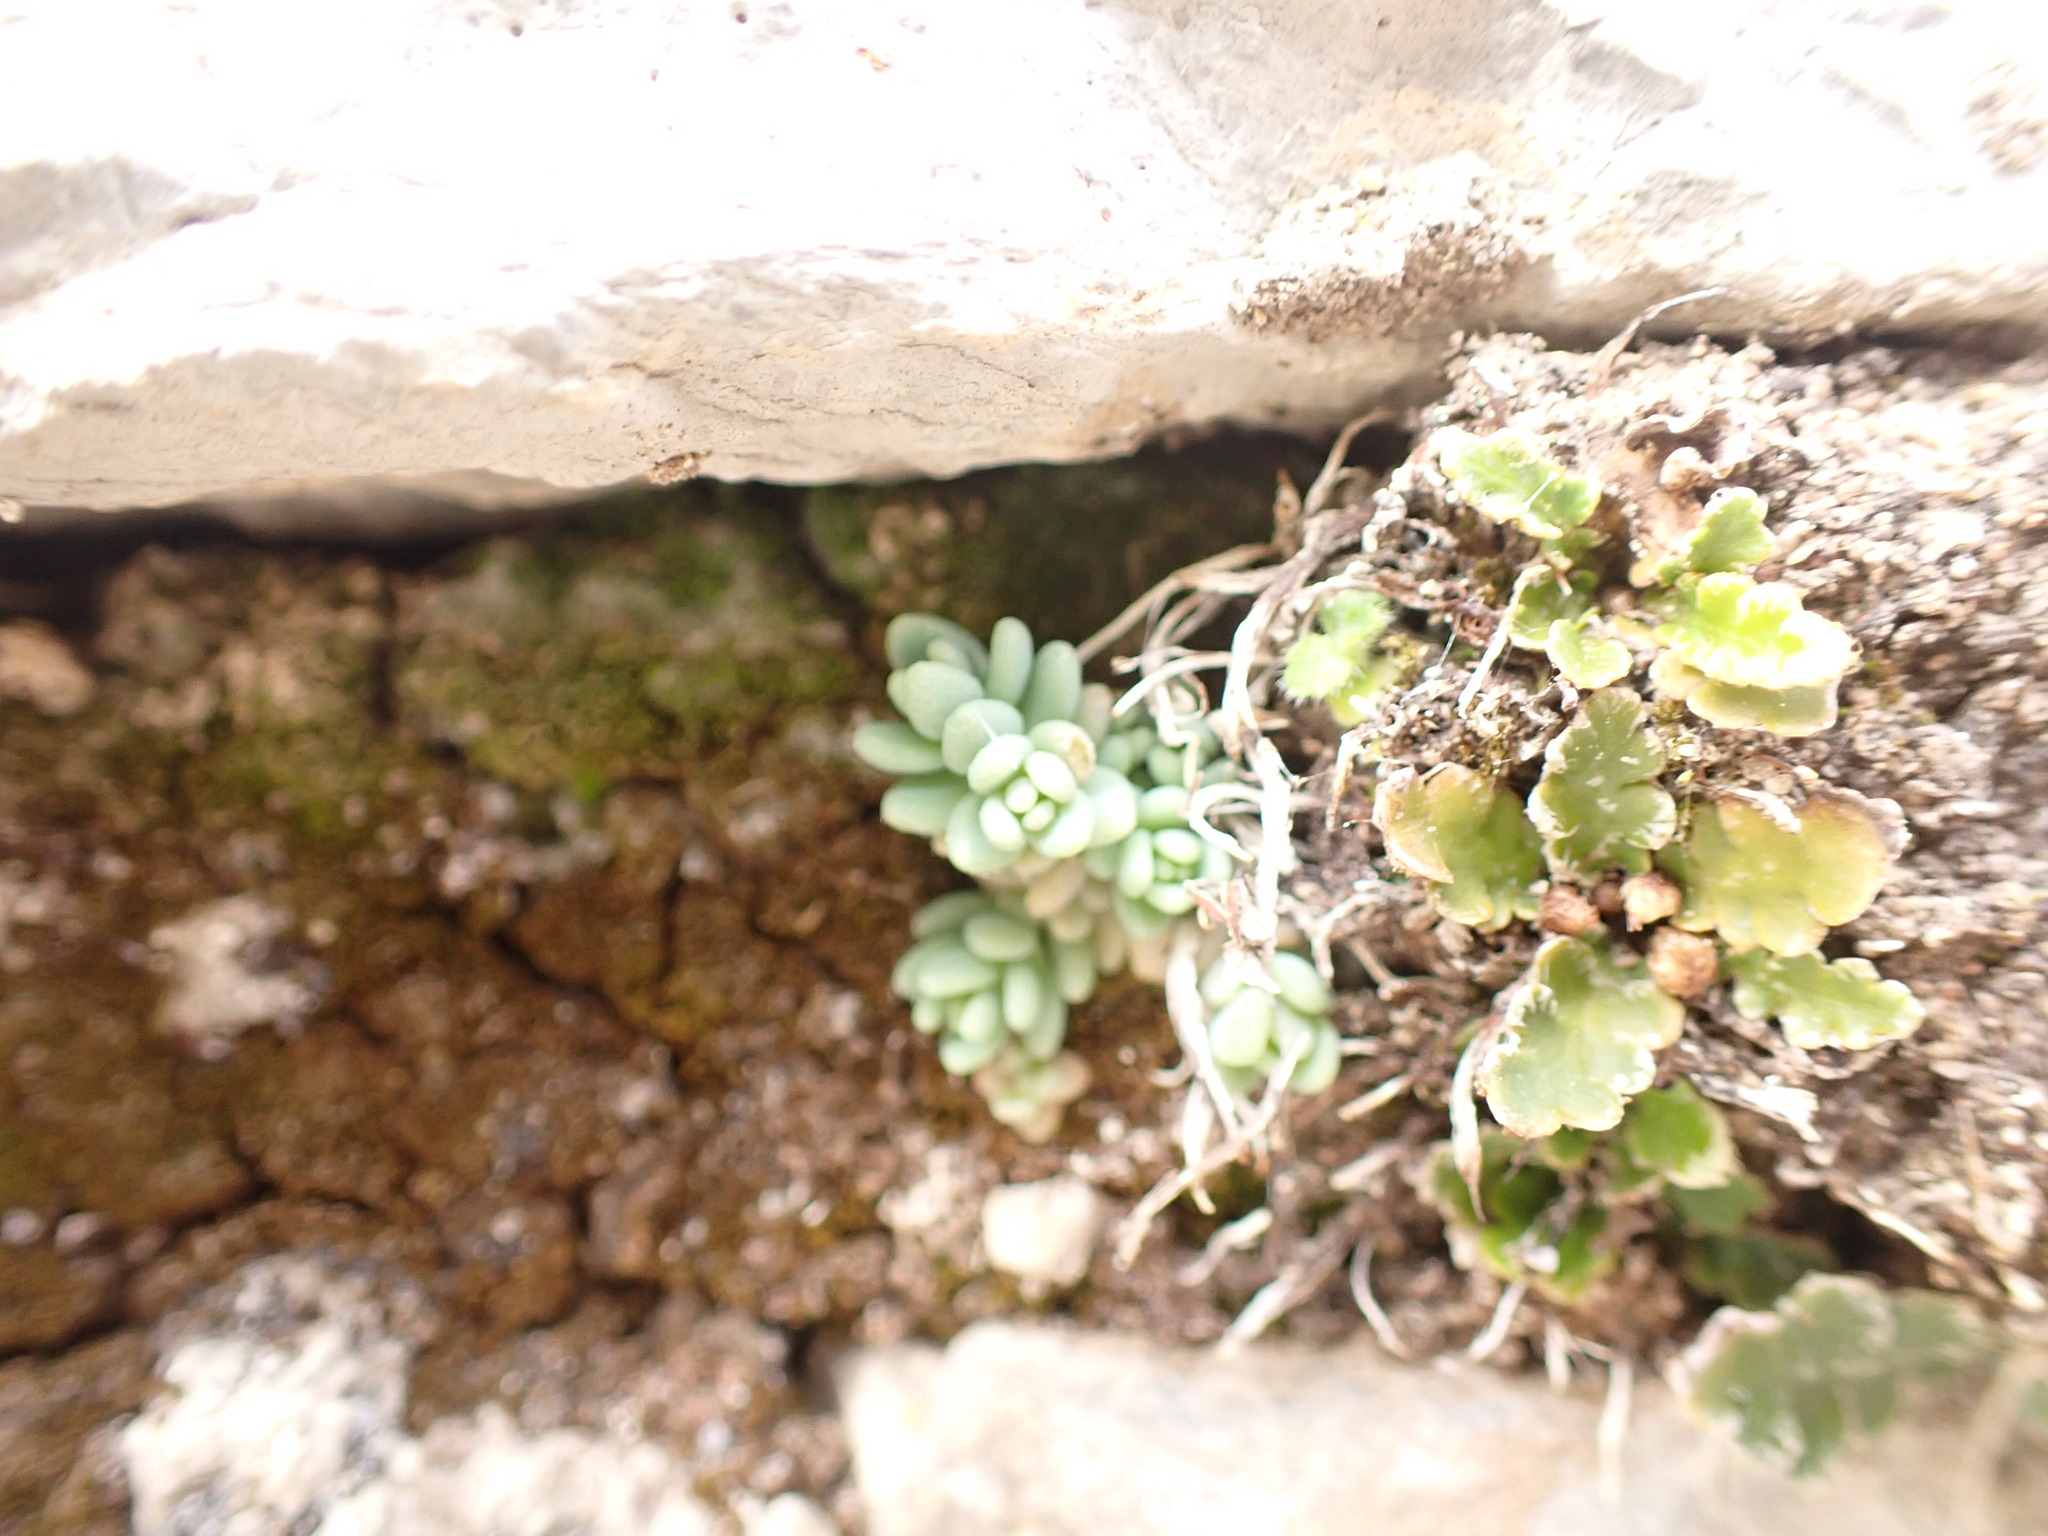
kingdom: Plantae
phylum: Tracheophyta
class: Magnoliopsida
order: Saxifragales
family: Crassulaceae
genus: Sedum
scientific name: Sedum dasyphyllum
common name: Thick-leaf stonecrop
